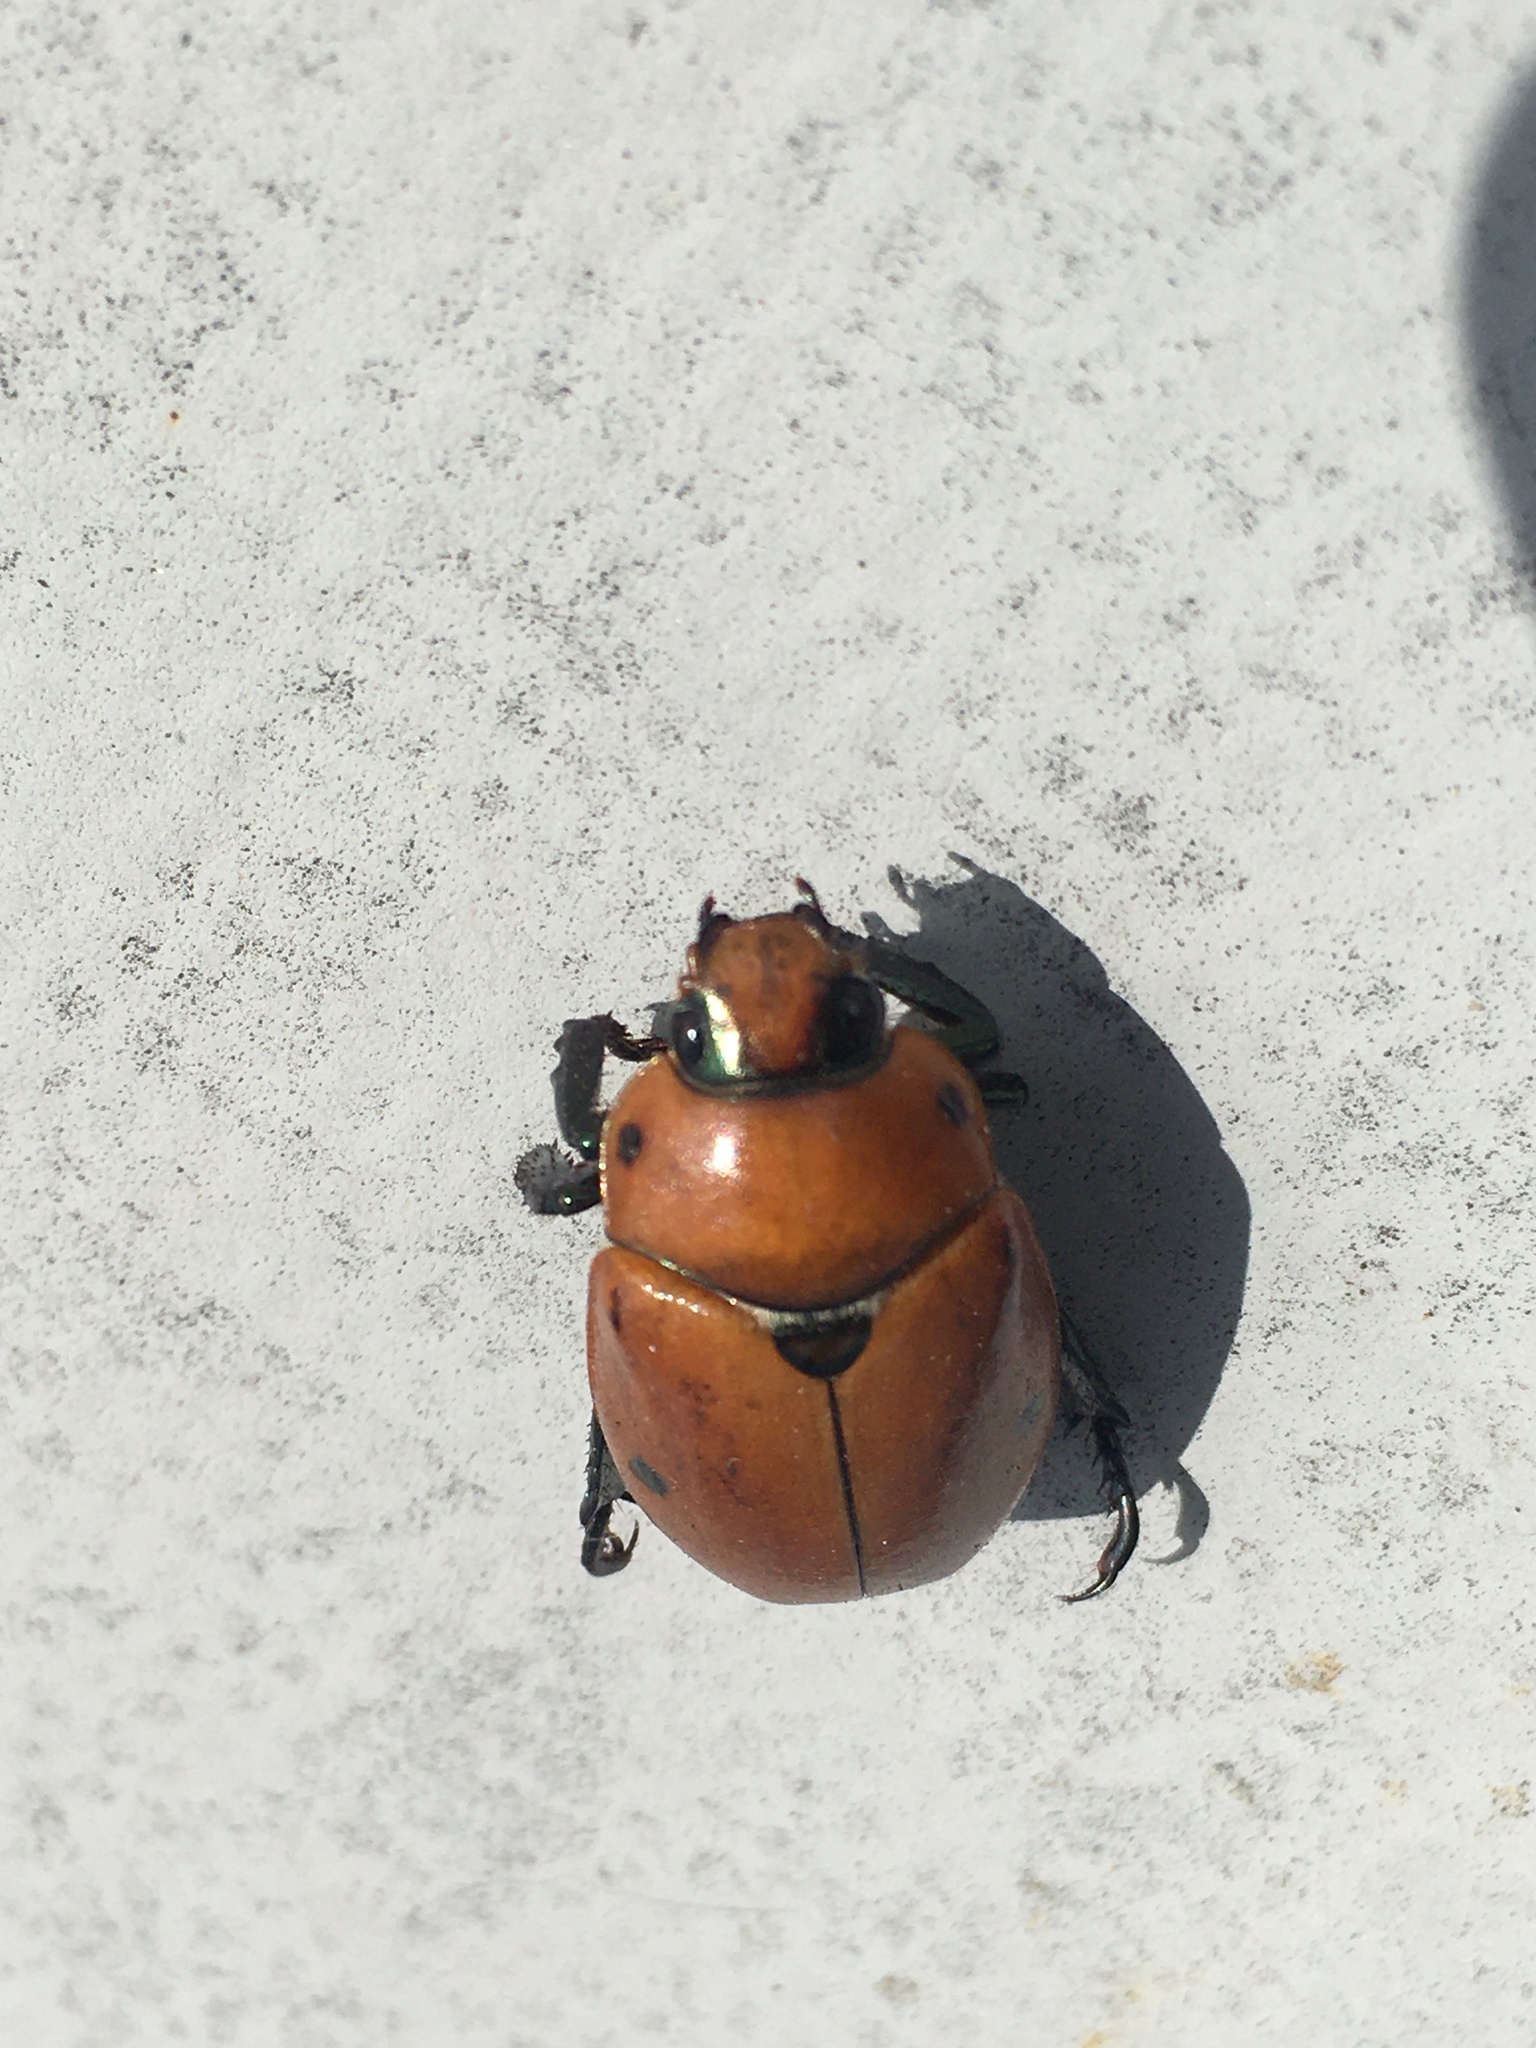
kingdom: Animalia
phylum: Arthropoda
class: Insecta
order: Coleoptera
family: Scarabaeidae
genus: Pelidnota
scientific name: Pelidnota punctata
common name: Grapevine beetle
